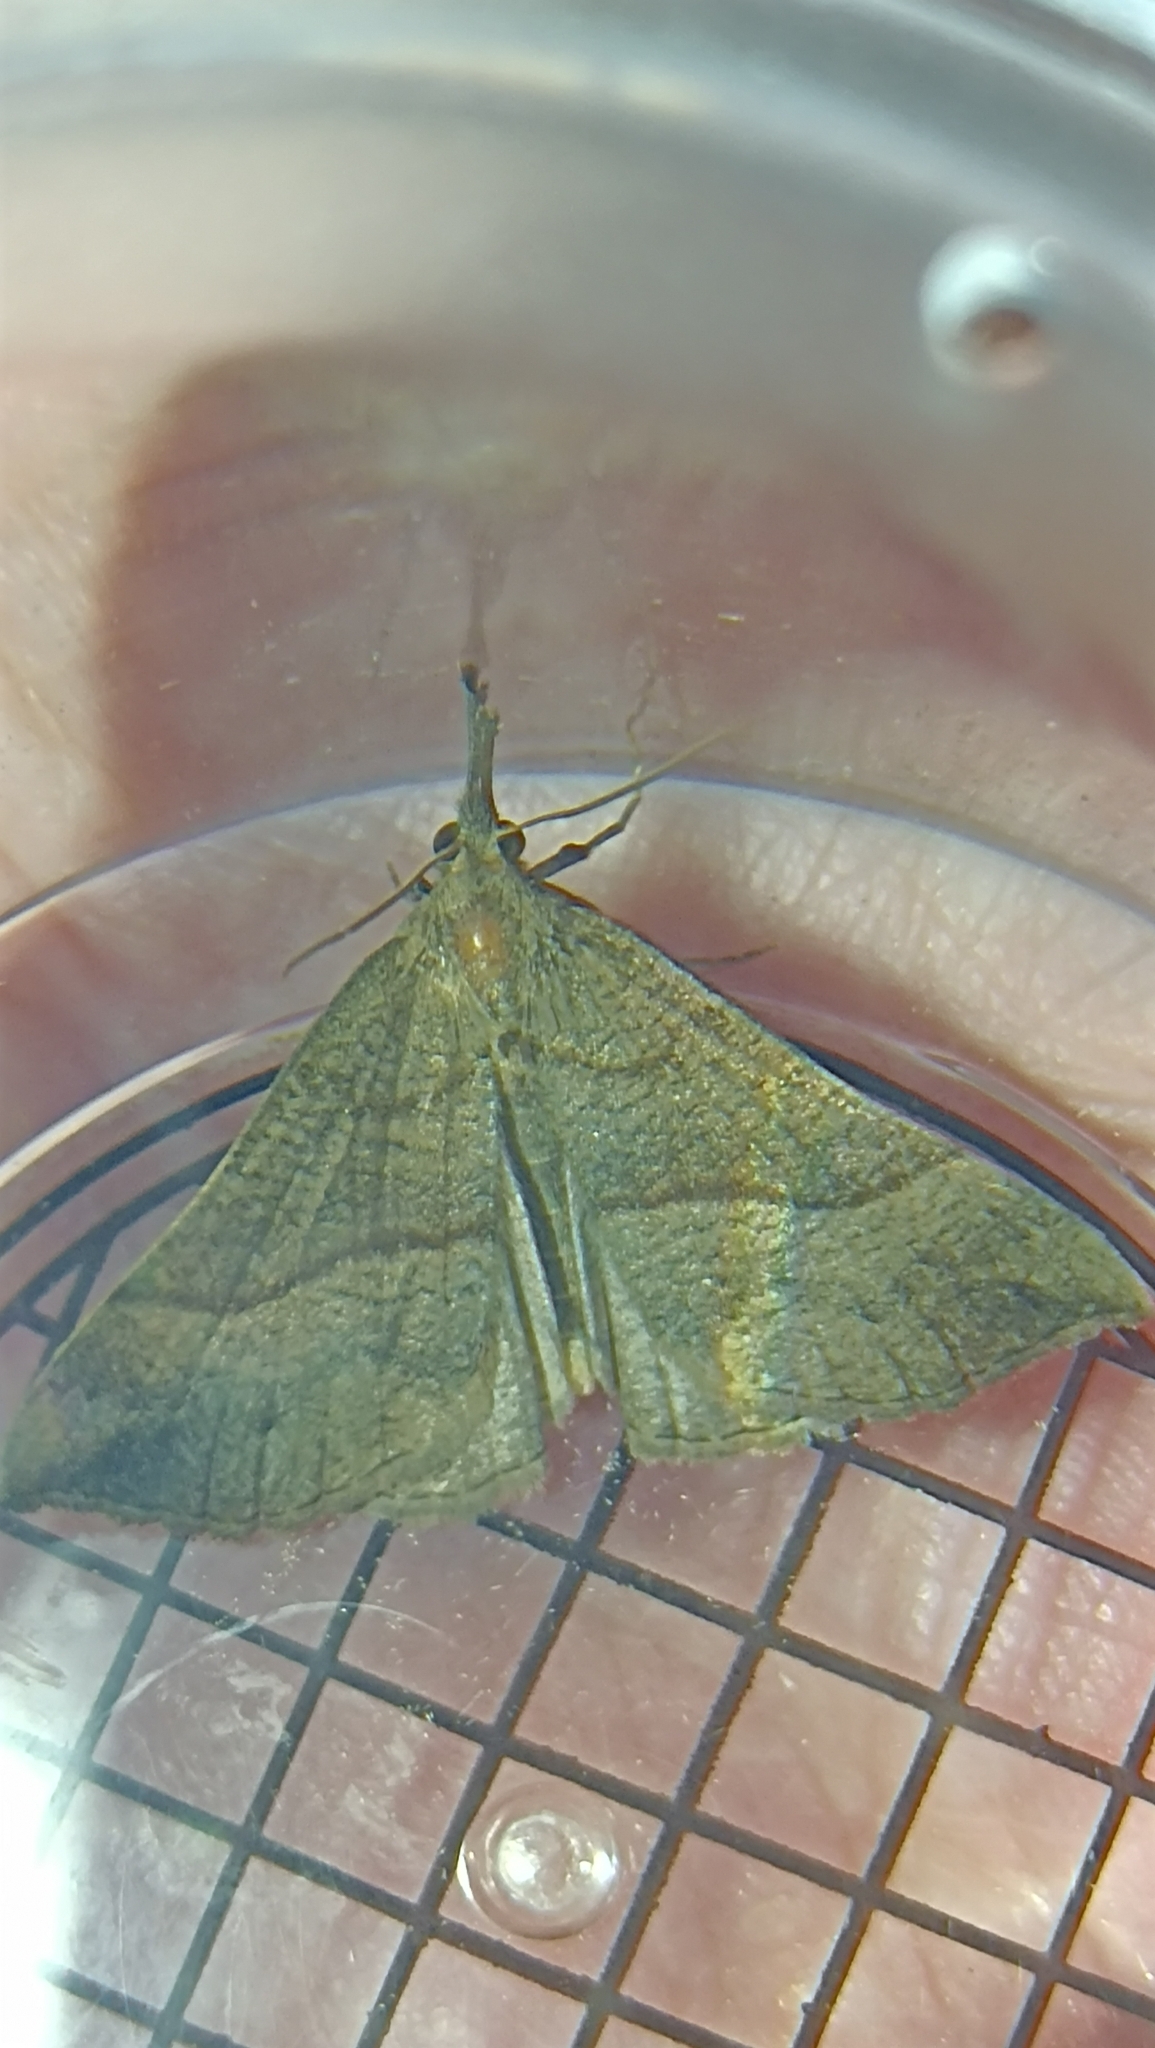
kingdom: Animalia
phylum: Arthropoda
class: Insecta
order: Lepidoptera
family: Erebidae
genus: Hypena
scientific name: Hypena proboscidalis
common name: Snout
